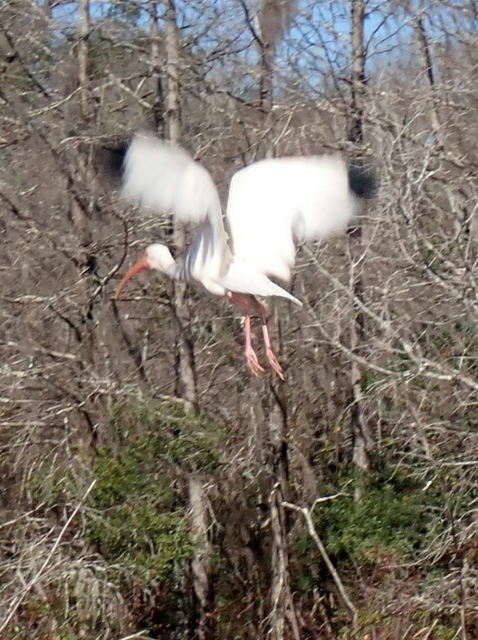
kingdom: Animalia
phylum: Chordata
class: Aves
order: Pelecaniformes
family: Threskiornithidae
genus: Eudocimus
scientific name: Eudocimus albus
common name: White ibis
